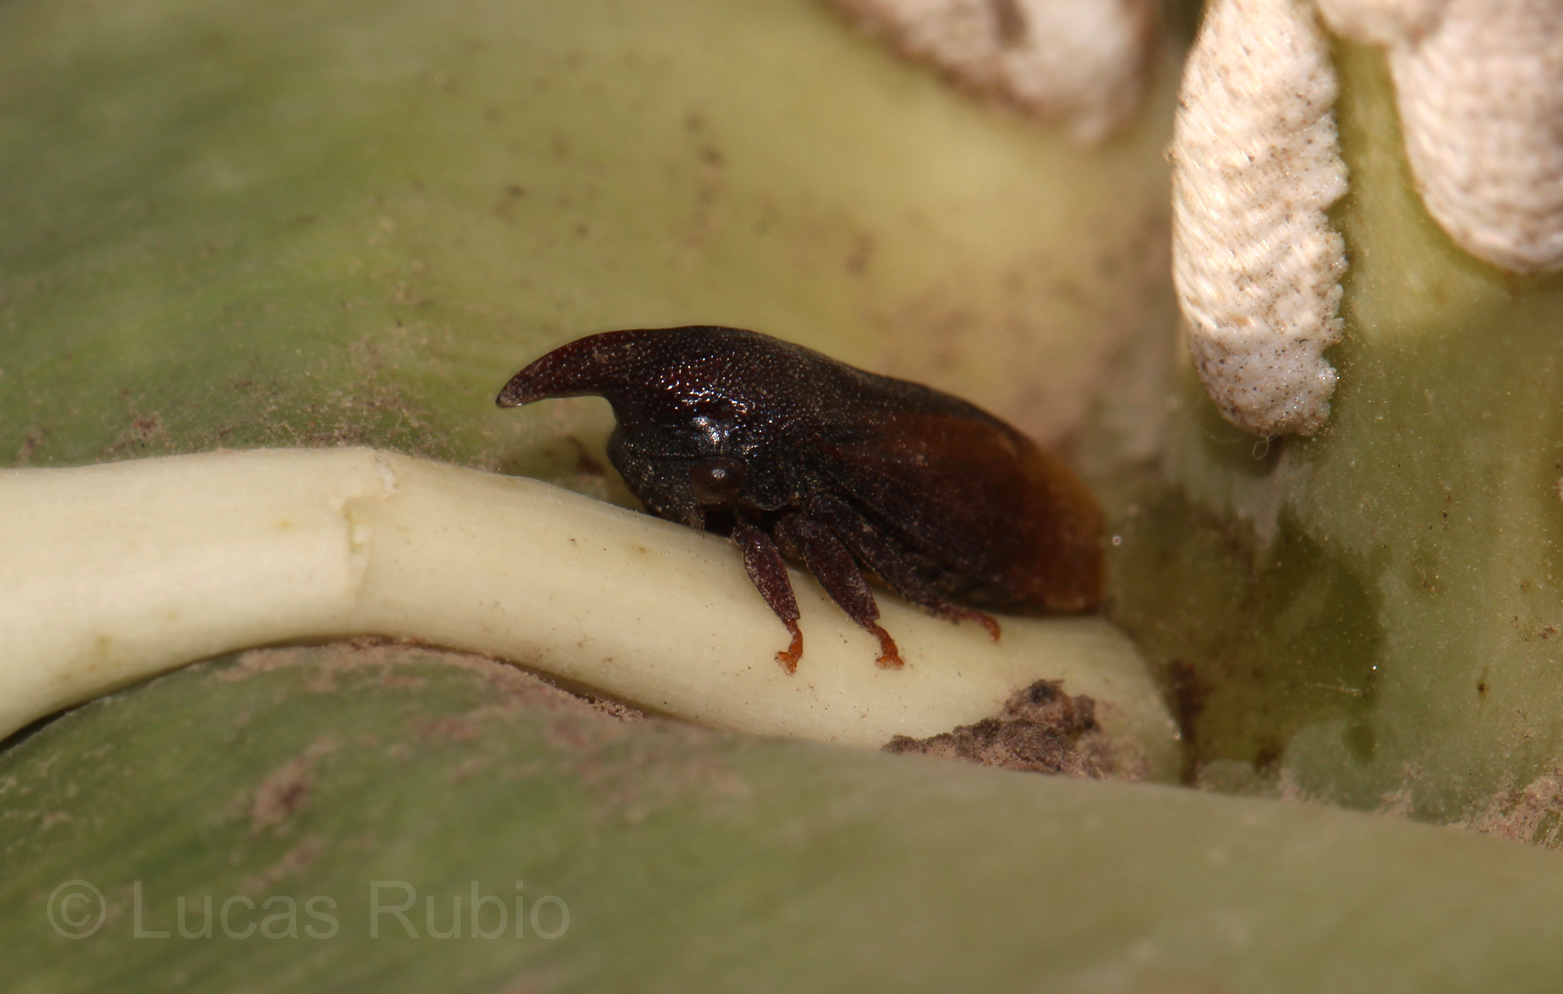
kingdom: Animalia
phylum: Arthropoda
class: Insecta
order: Hemiptera
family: Membracidae
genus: Kronides
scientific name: Kronides incumbens
